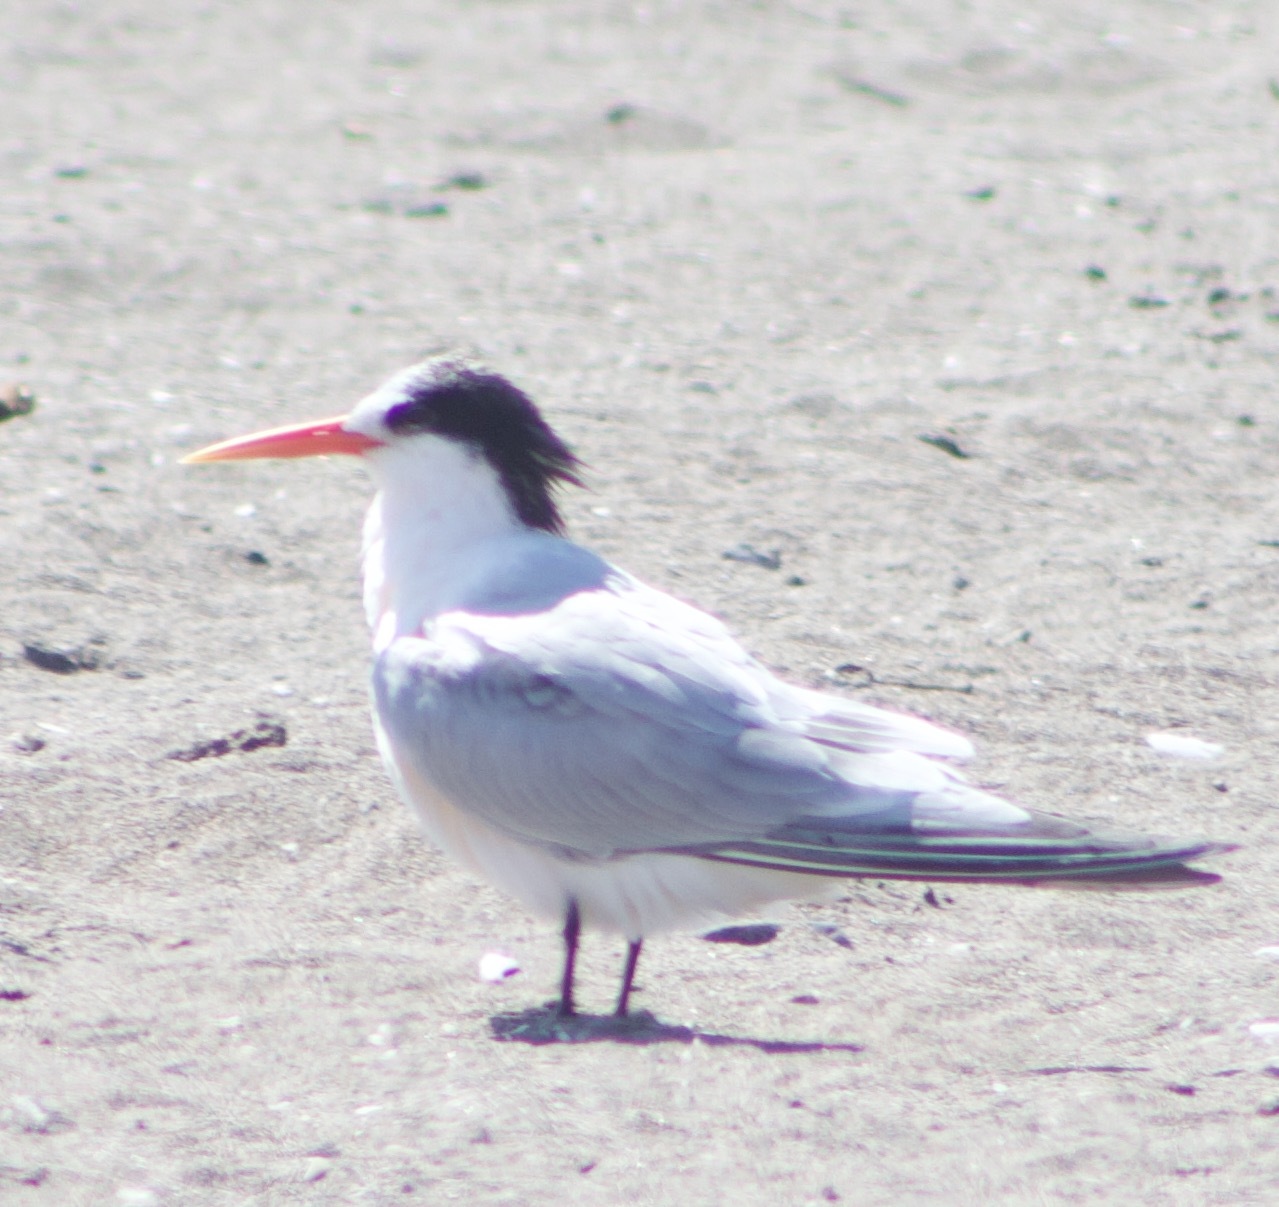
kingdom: Animalia
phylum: Chordata
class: Aves
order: Charadriiformes
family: Laridae
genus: Thalasseus
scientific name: Thalasseus elegans
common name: Elegant tern
